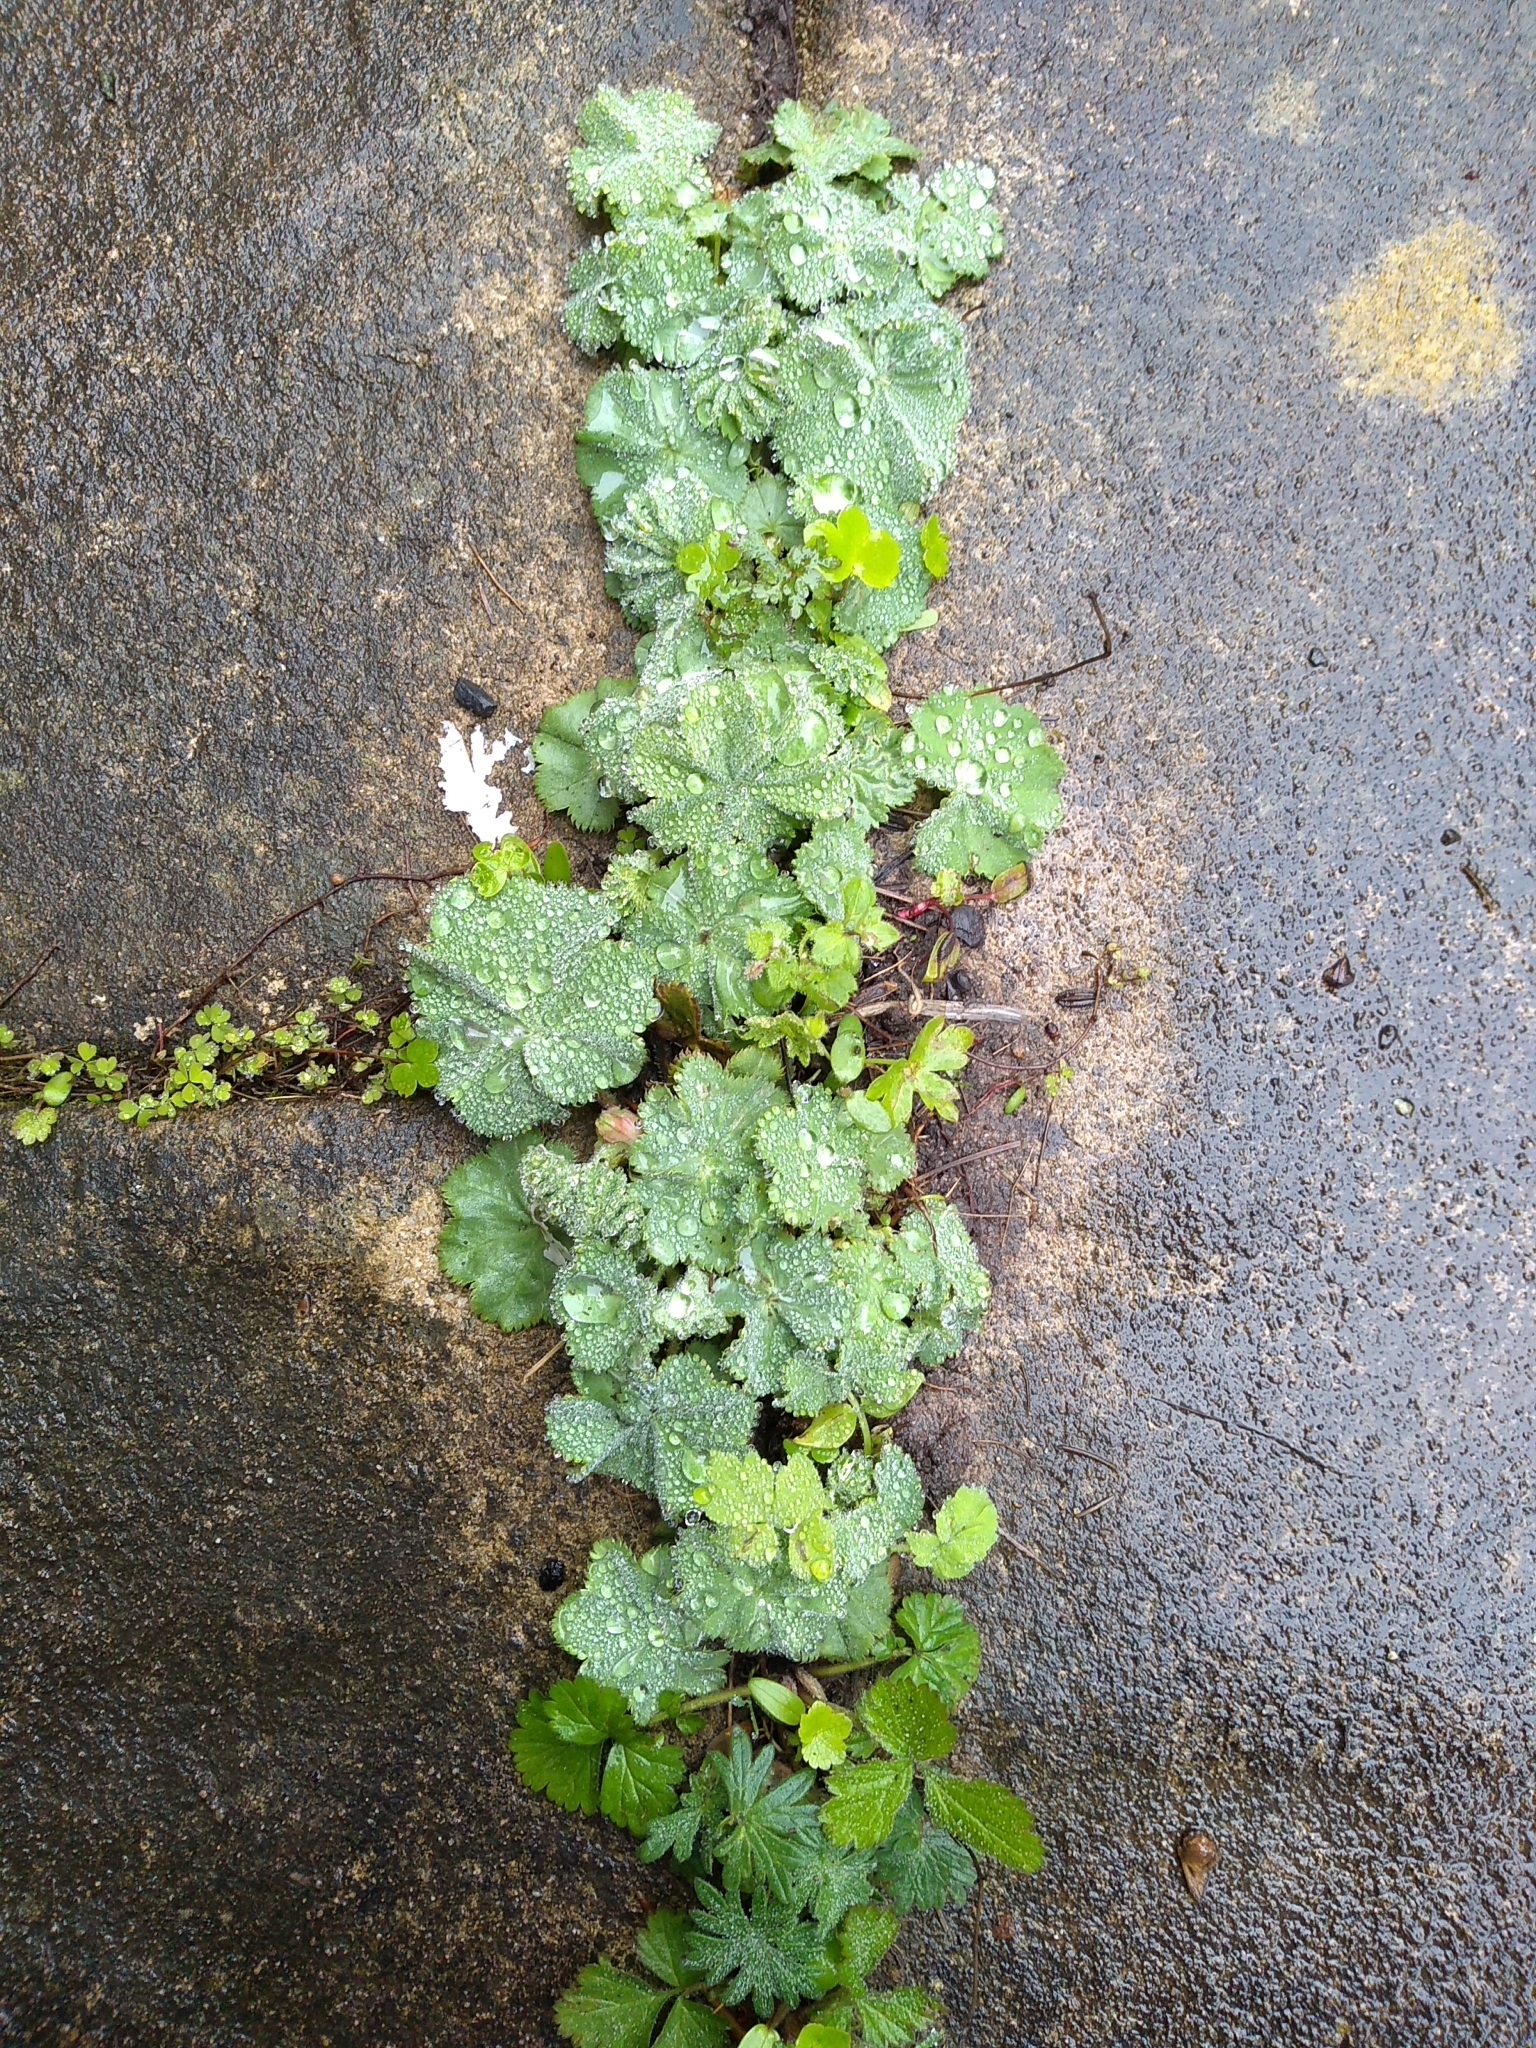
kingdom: Plantae
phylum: Tracheophyta
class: Magnoliopsida
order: Rosales
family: Rosaceae
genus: Alchemilla
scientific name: Alchemilla mollis
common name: Lady's-mantle
